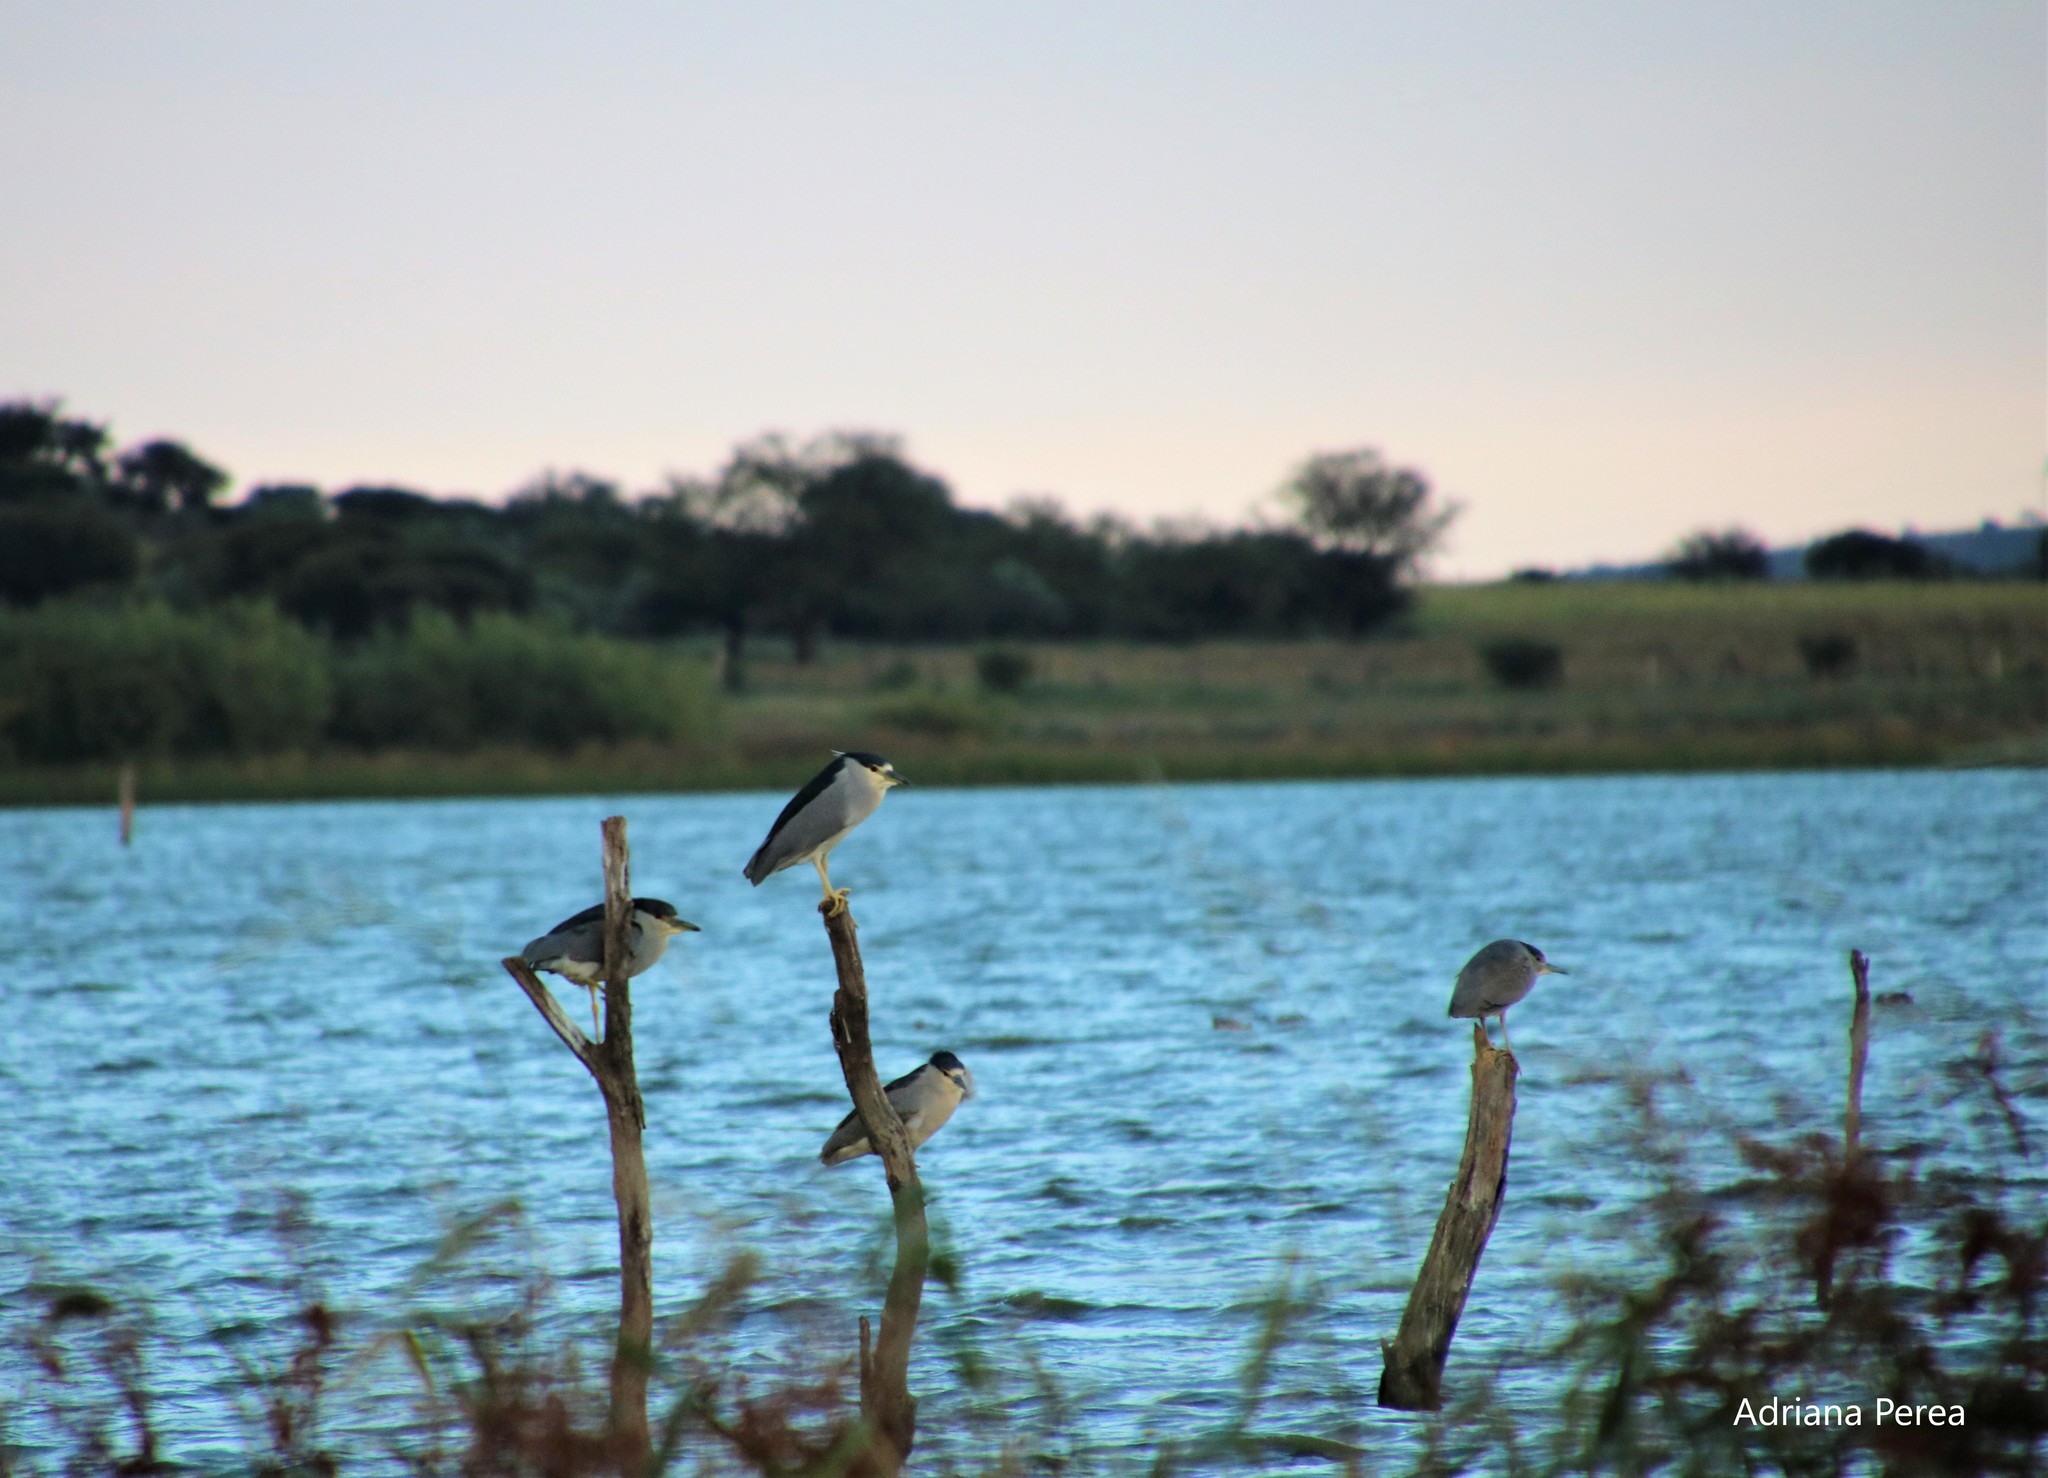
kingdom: Animalia
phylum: Chordata
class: Aves
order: Pelecaniformes
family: Ardeidae
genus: Nycticorax
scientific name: Nycticorax nycticorax
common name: Black-crowned night heron
